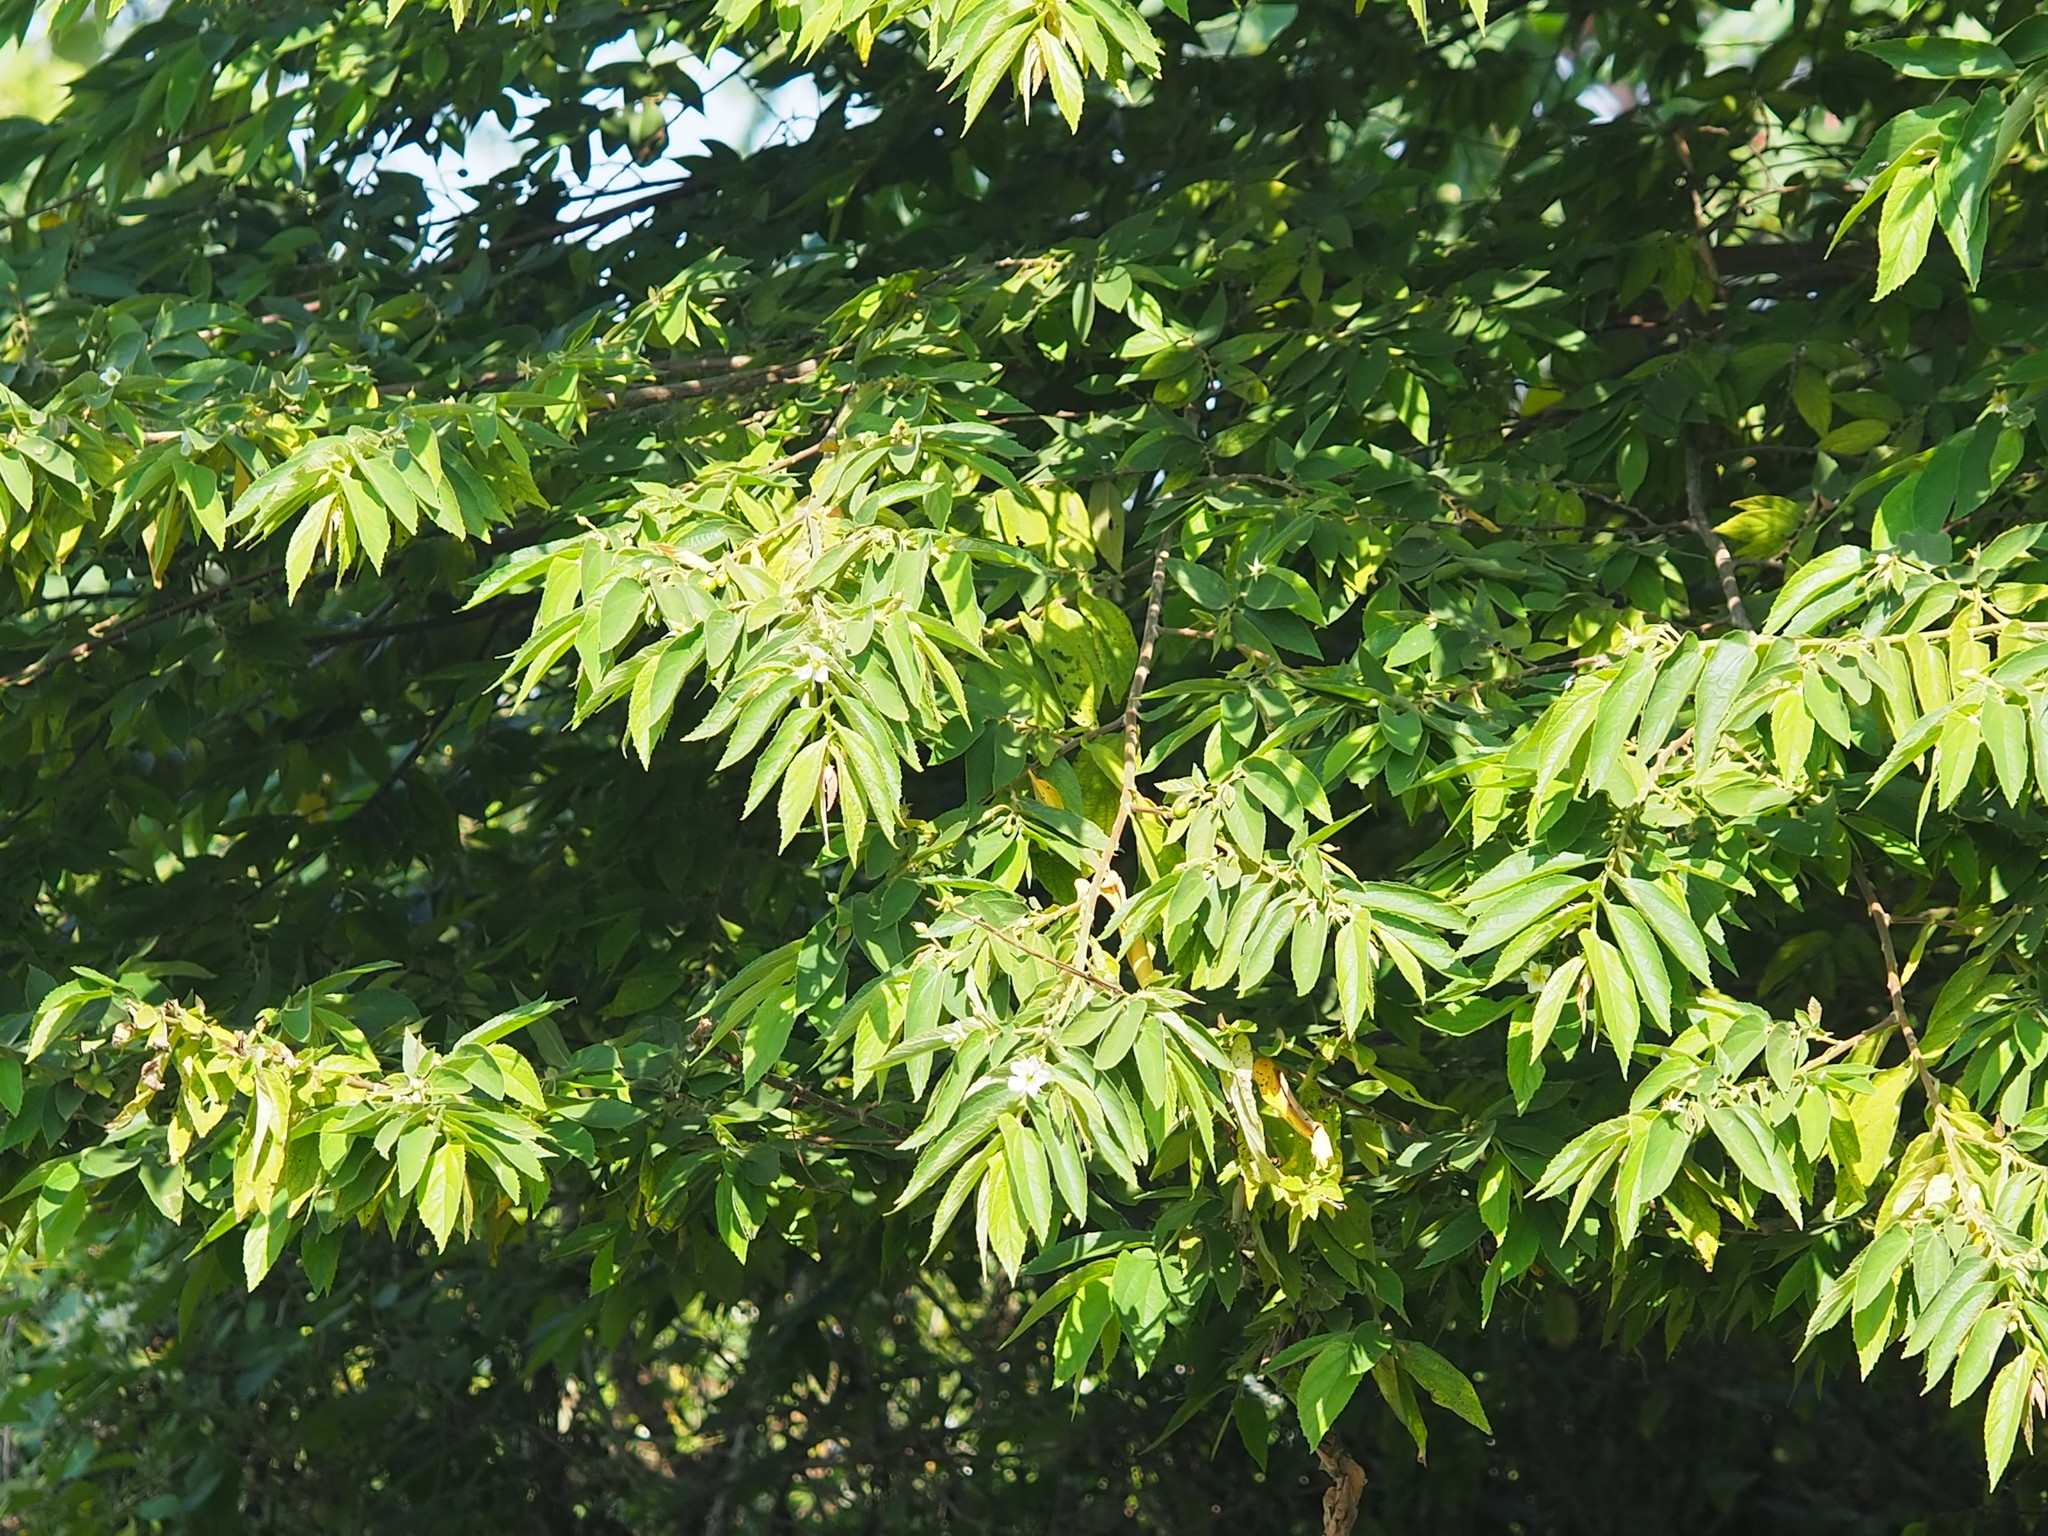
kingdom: Plantae
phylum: Tracheophyta
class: Magnoliopsida
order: Malvales
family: Muntingiaceae
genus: Muntingia
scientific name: Muntingia calabura
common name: Strawberrytree
